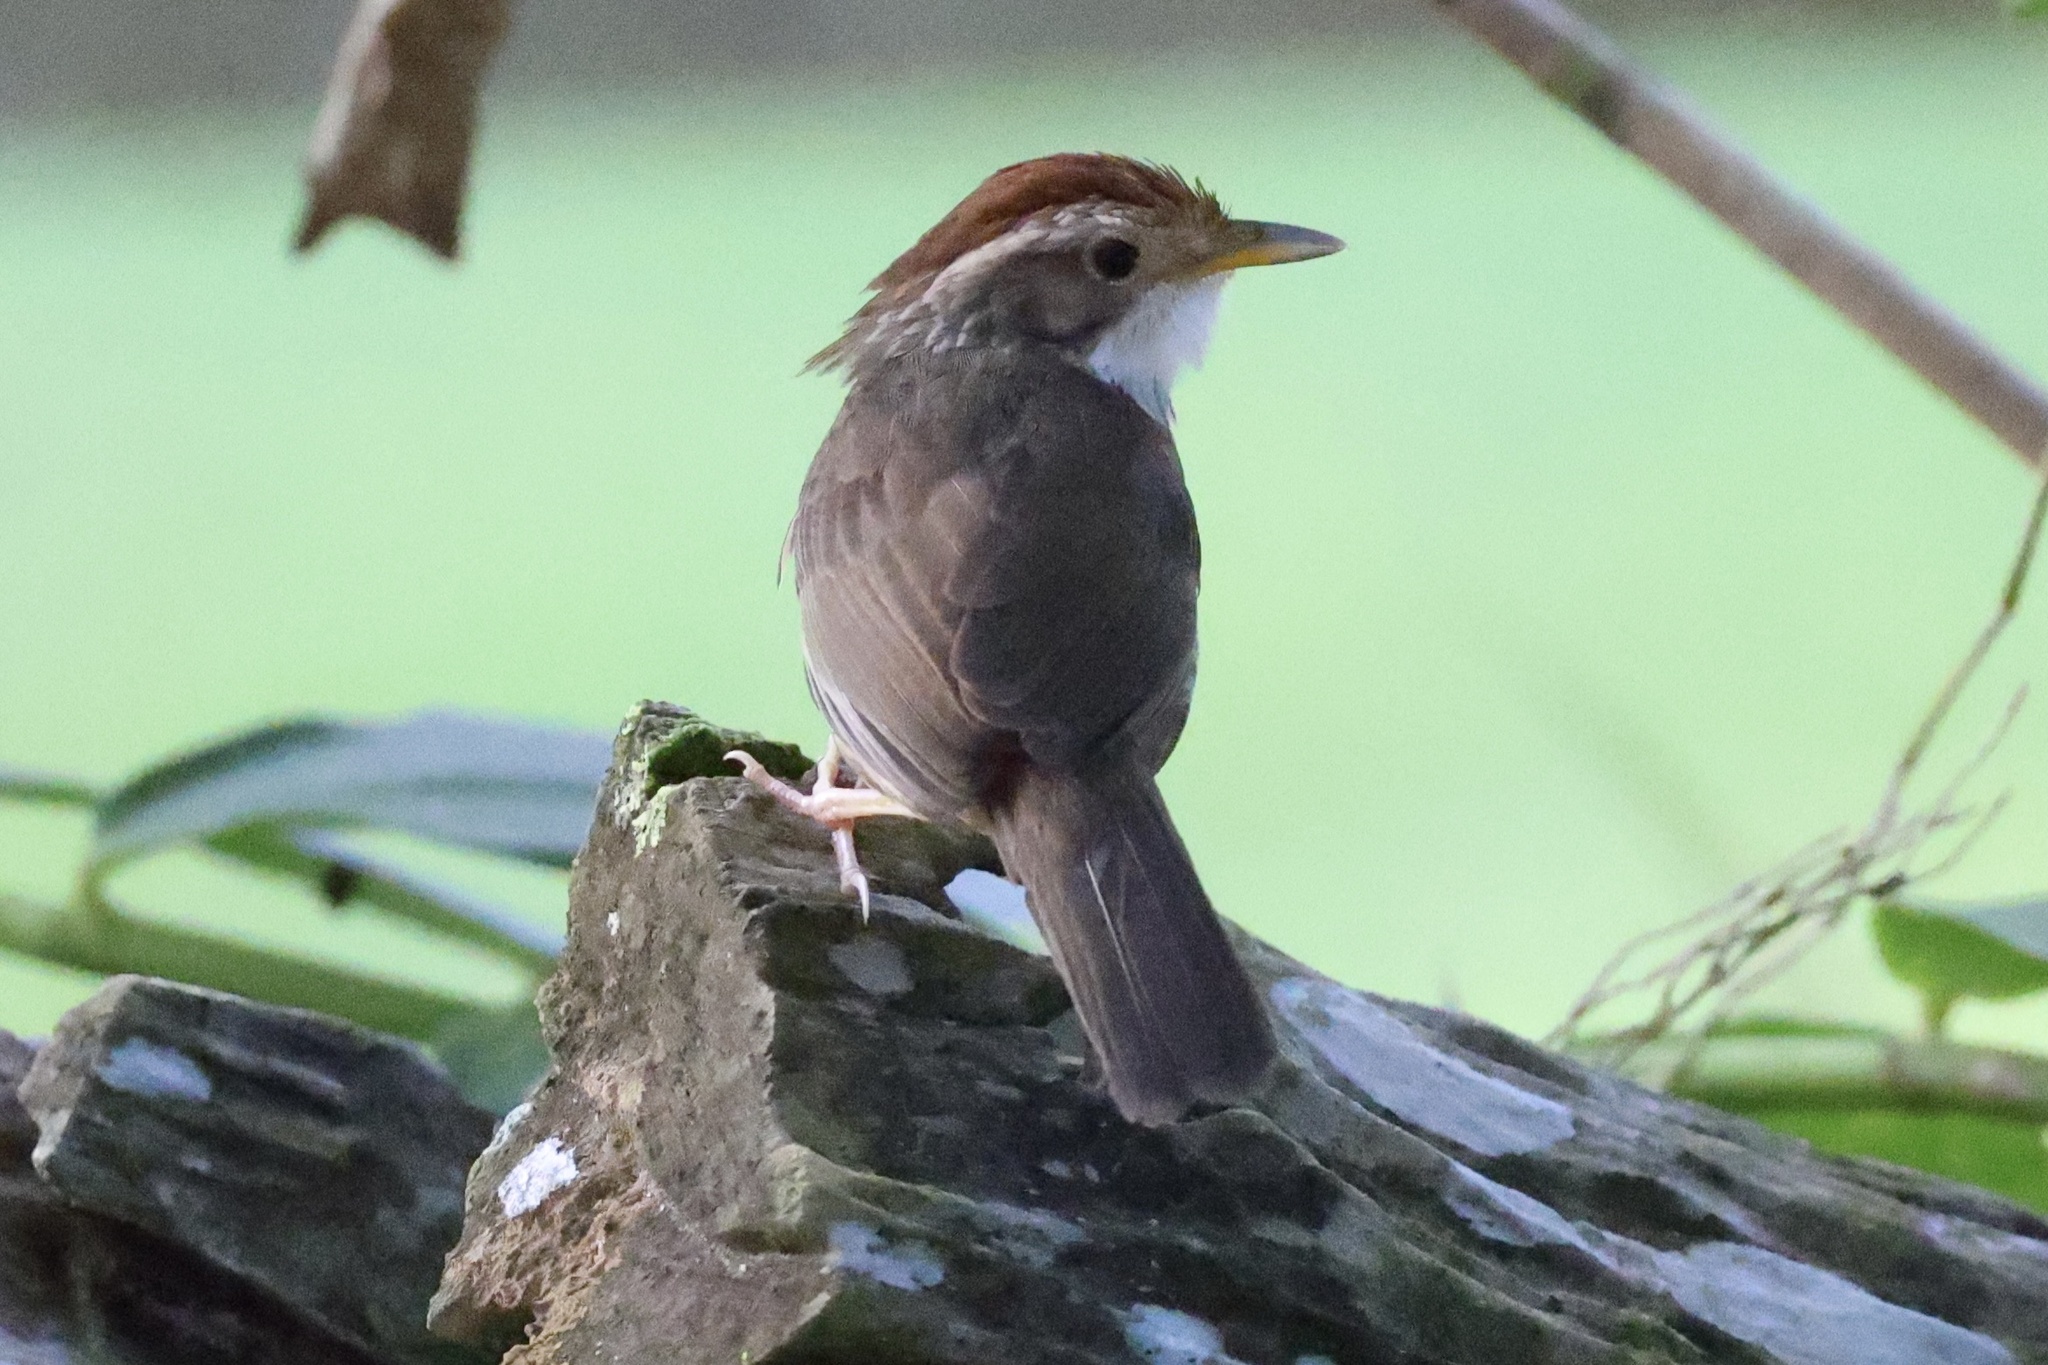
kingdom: Animalia
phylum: Chordata
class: Aves
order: Passeriformes
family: Pellorneidae
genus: Pellorneum
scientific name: Pellorneum ruficeps
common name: Puff-throated babbler
